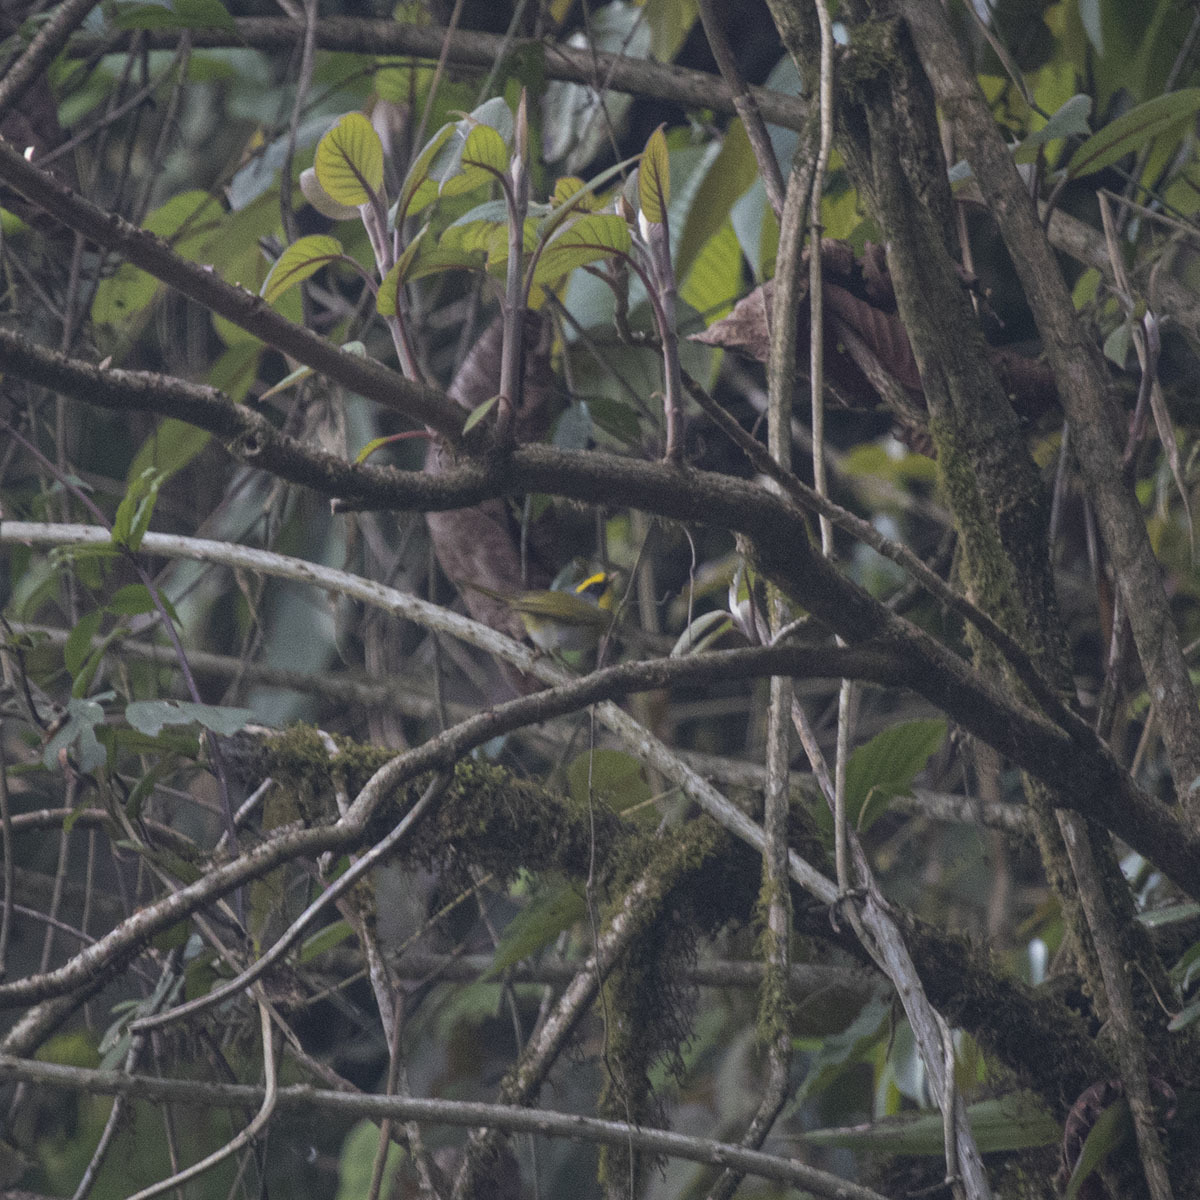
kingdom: Animalia
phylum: Chordata
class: Aves
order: Passeriformes
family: Cettiidae
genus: Abroscopus
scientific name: Abroscopus schisticeps
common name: Black-faced warbler
